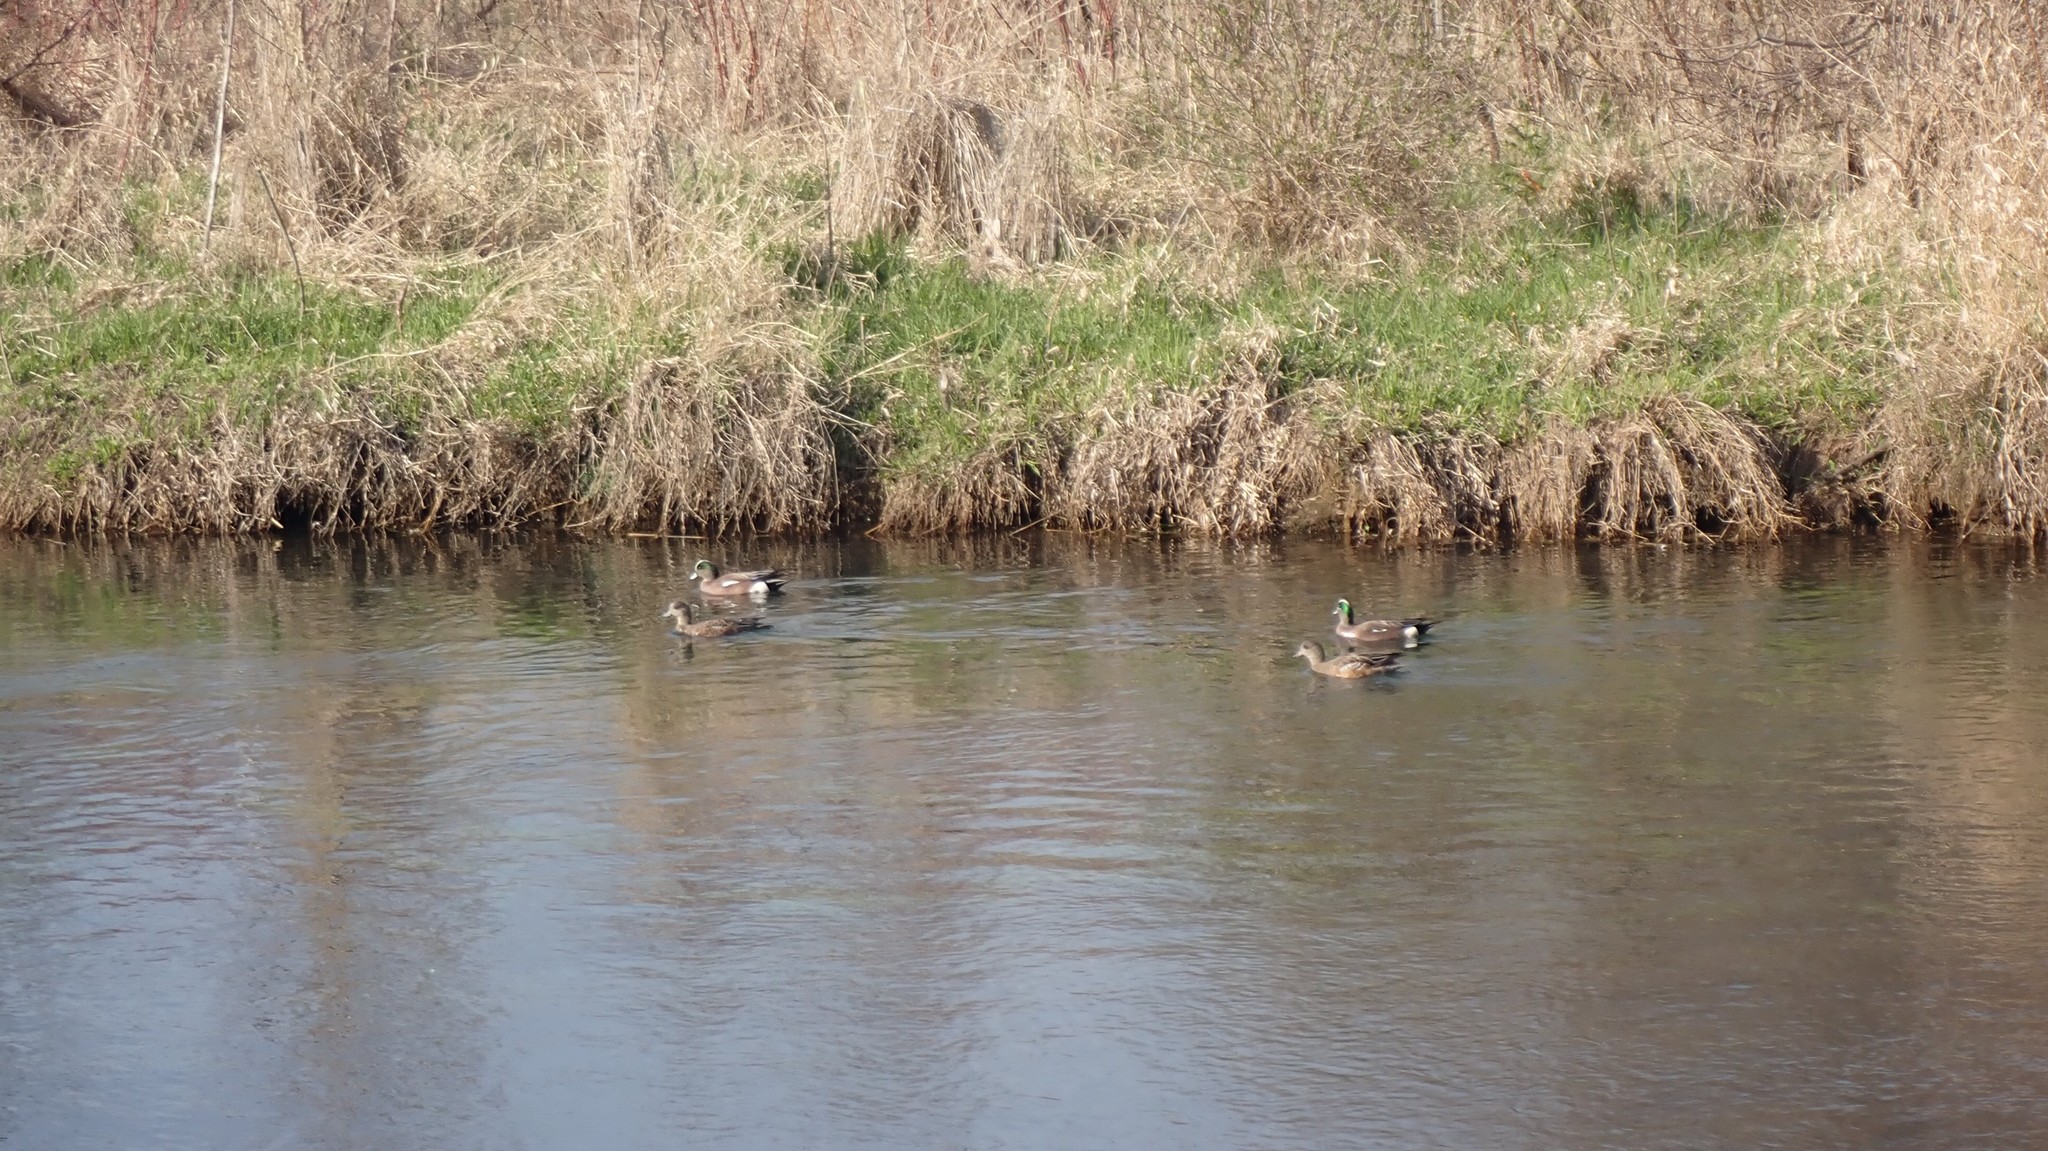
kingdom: Animalia
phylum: Chordata
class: Aves
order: Anseriformes
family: Anatidae
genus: Mareca
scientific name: Mareca americana
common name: American wigeon
